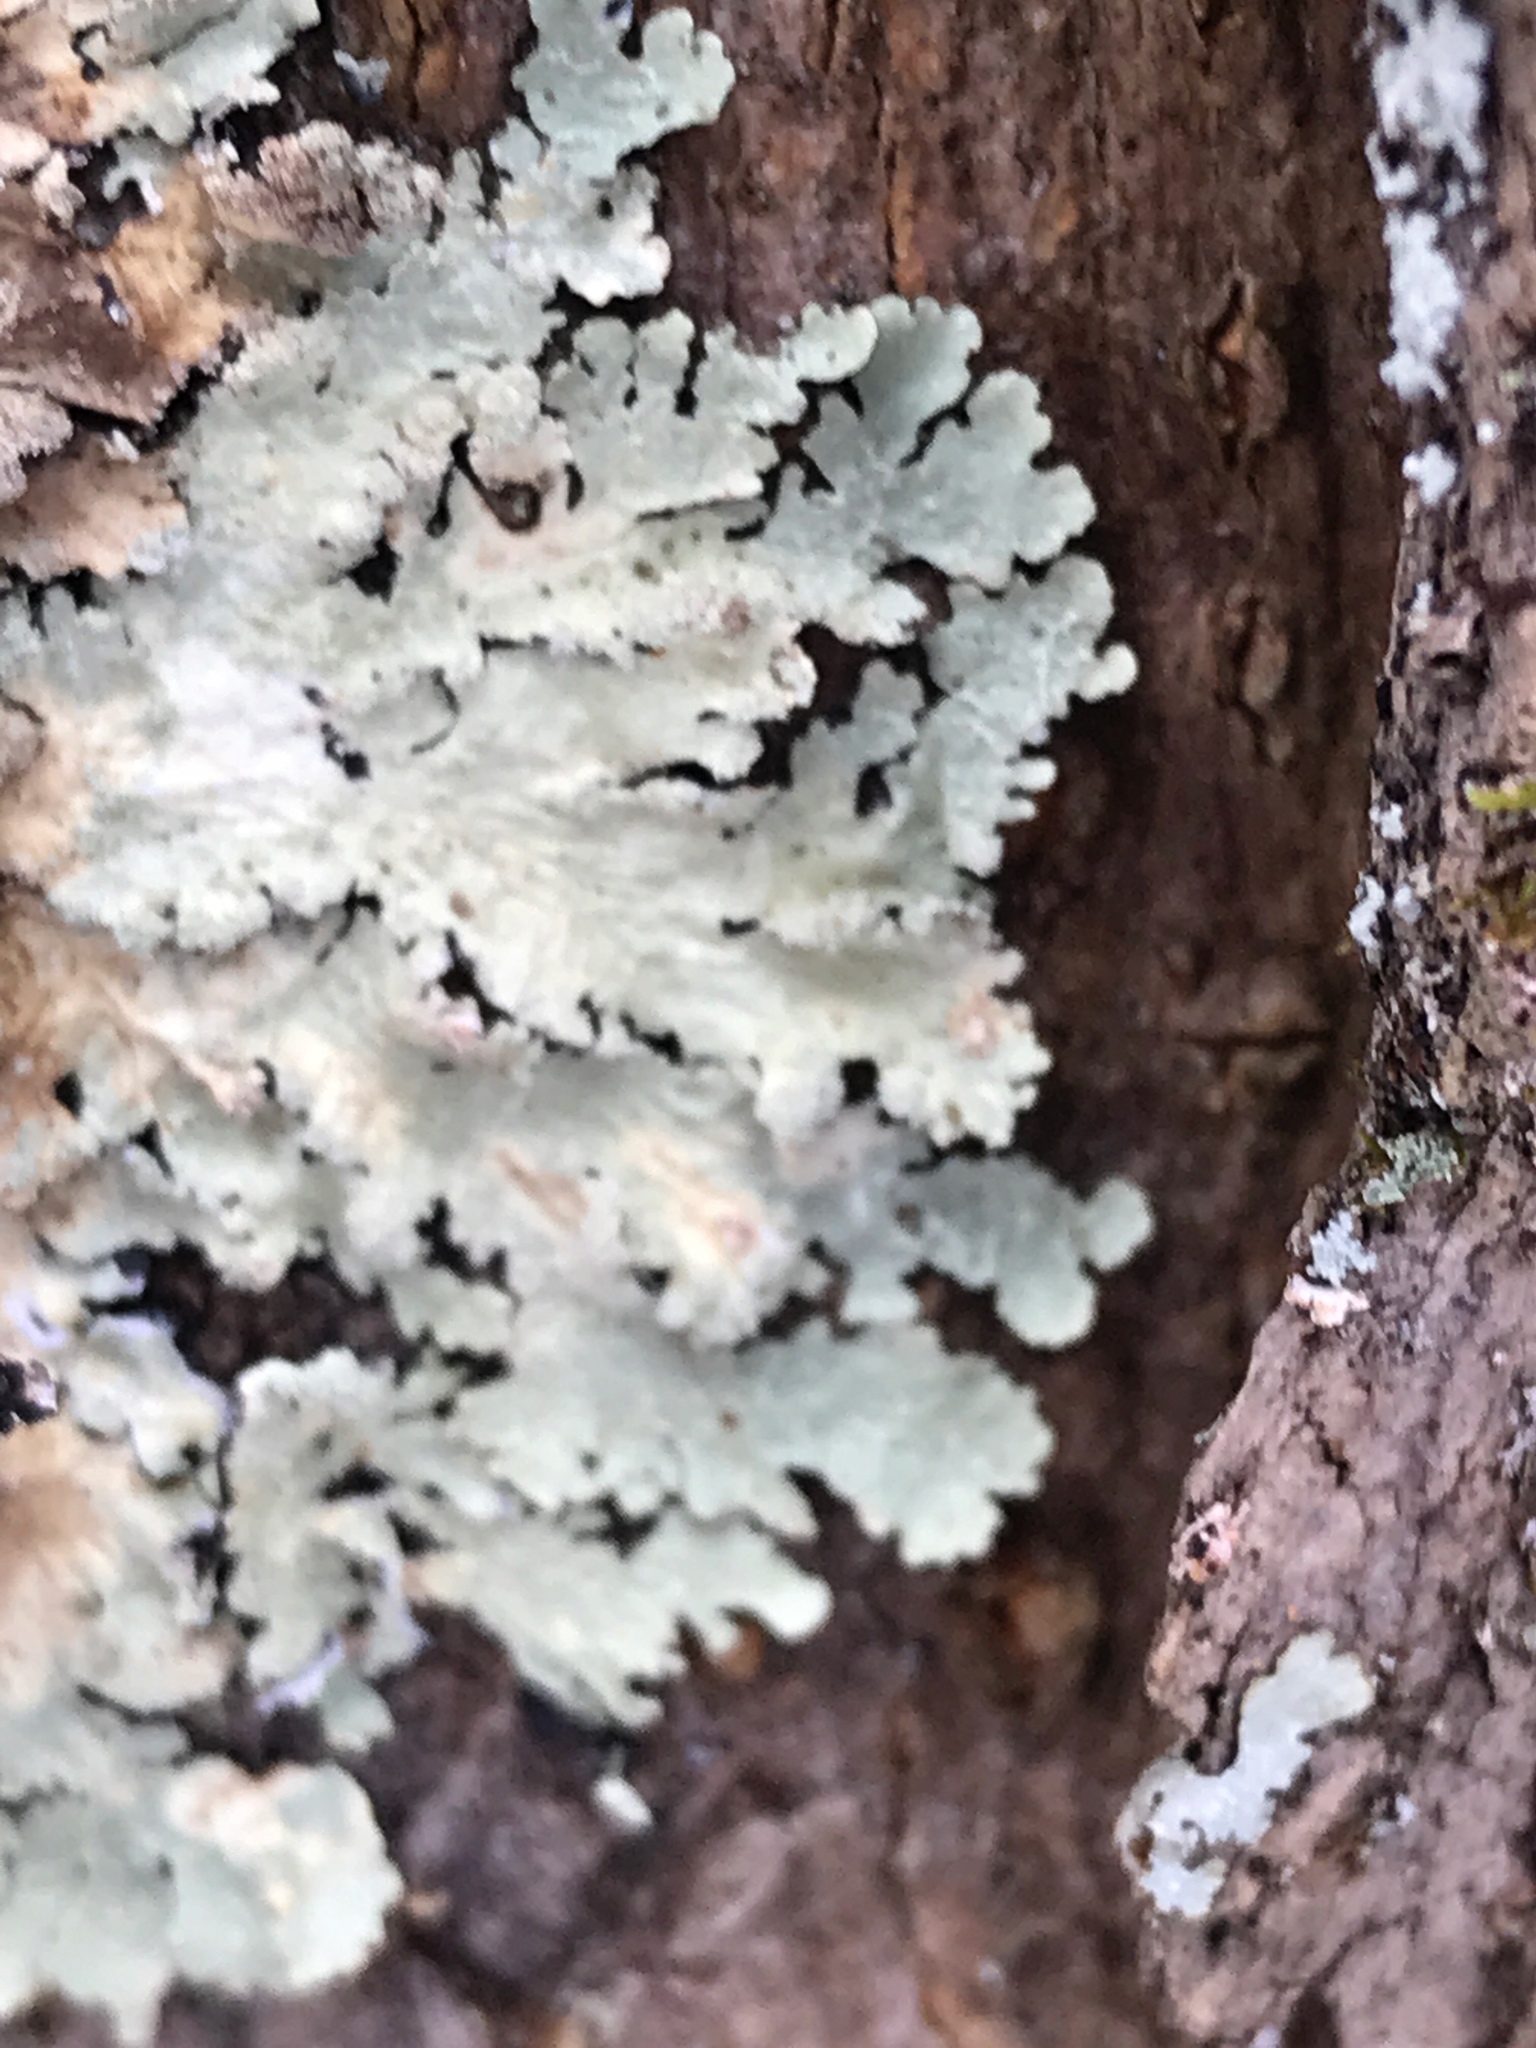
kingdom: Fungi
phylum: Ascomycota
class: Lecanoromycetes
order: Lecanorales
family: Parmeliaceae
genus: Flavoparmelia
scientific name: Flavoparmelia caperata
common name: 40-mile per hour lichen
